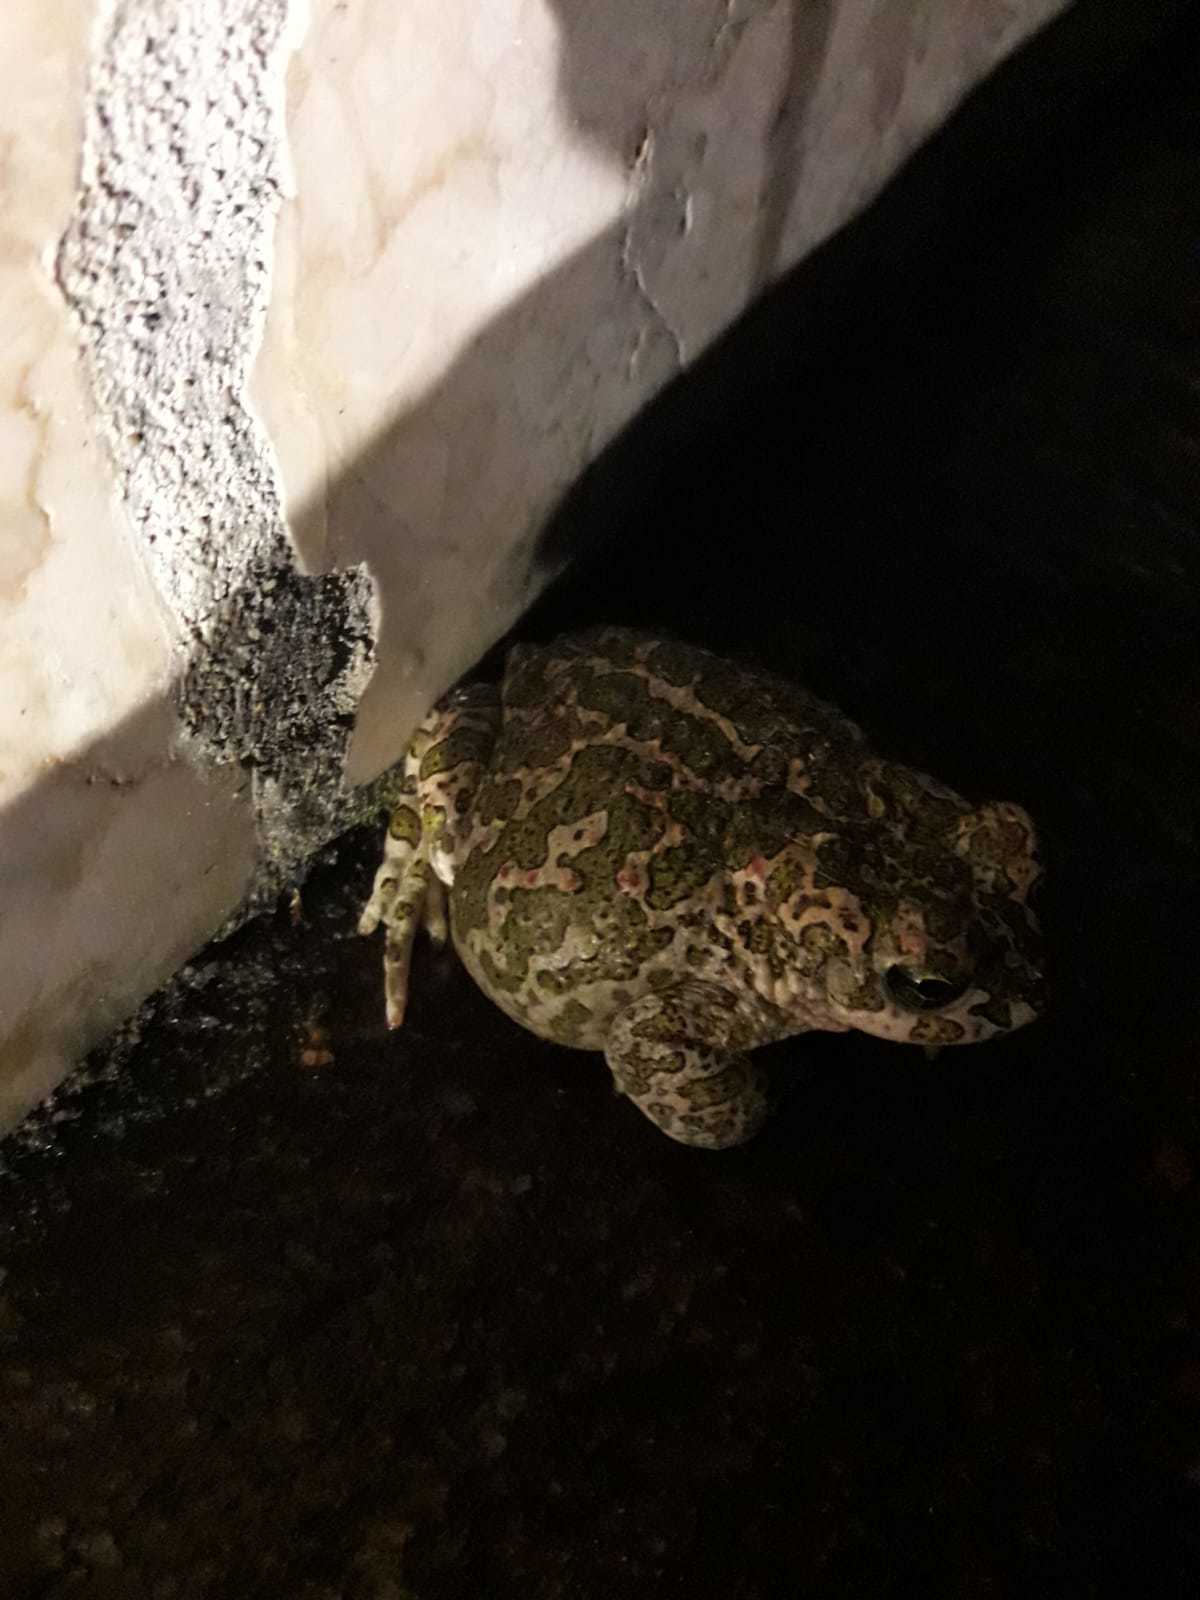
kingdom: Animalia
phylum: Chordata
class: Amphibia
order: Anura
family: Bufonidae
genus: Bufotes
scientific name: Bufotes viridis
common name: European green toad
